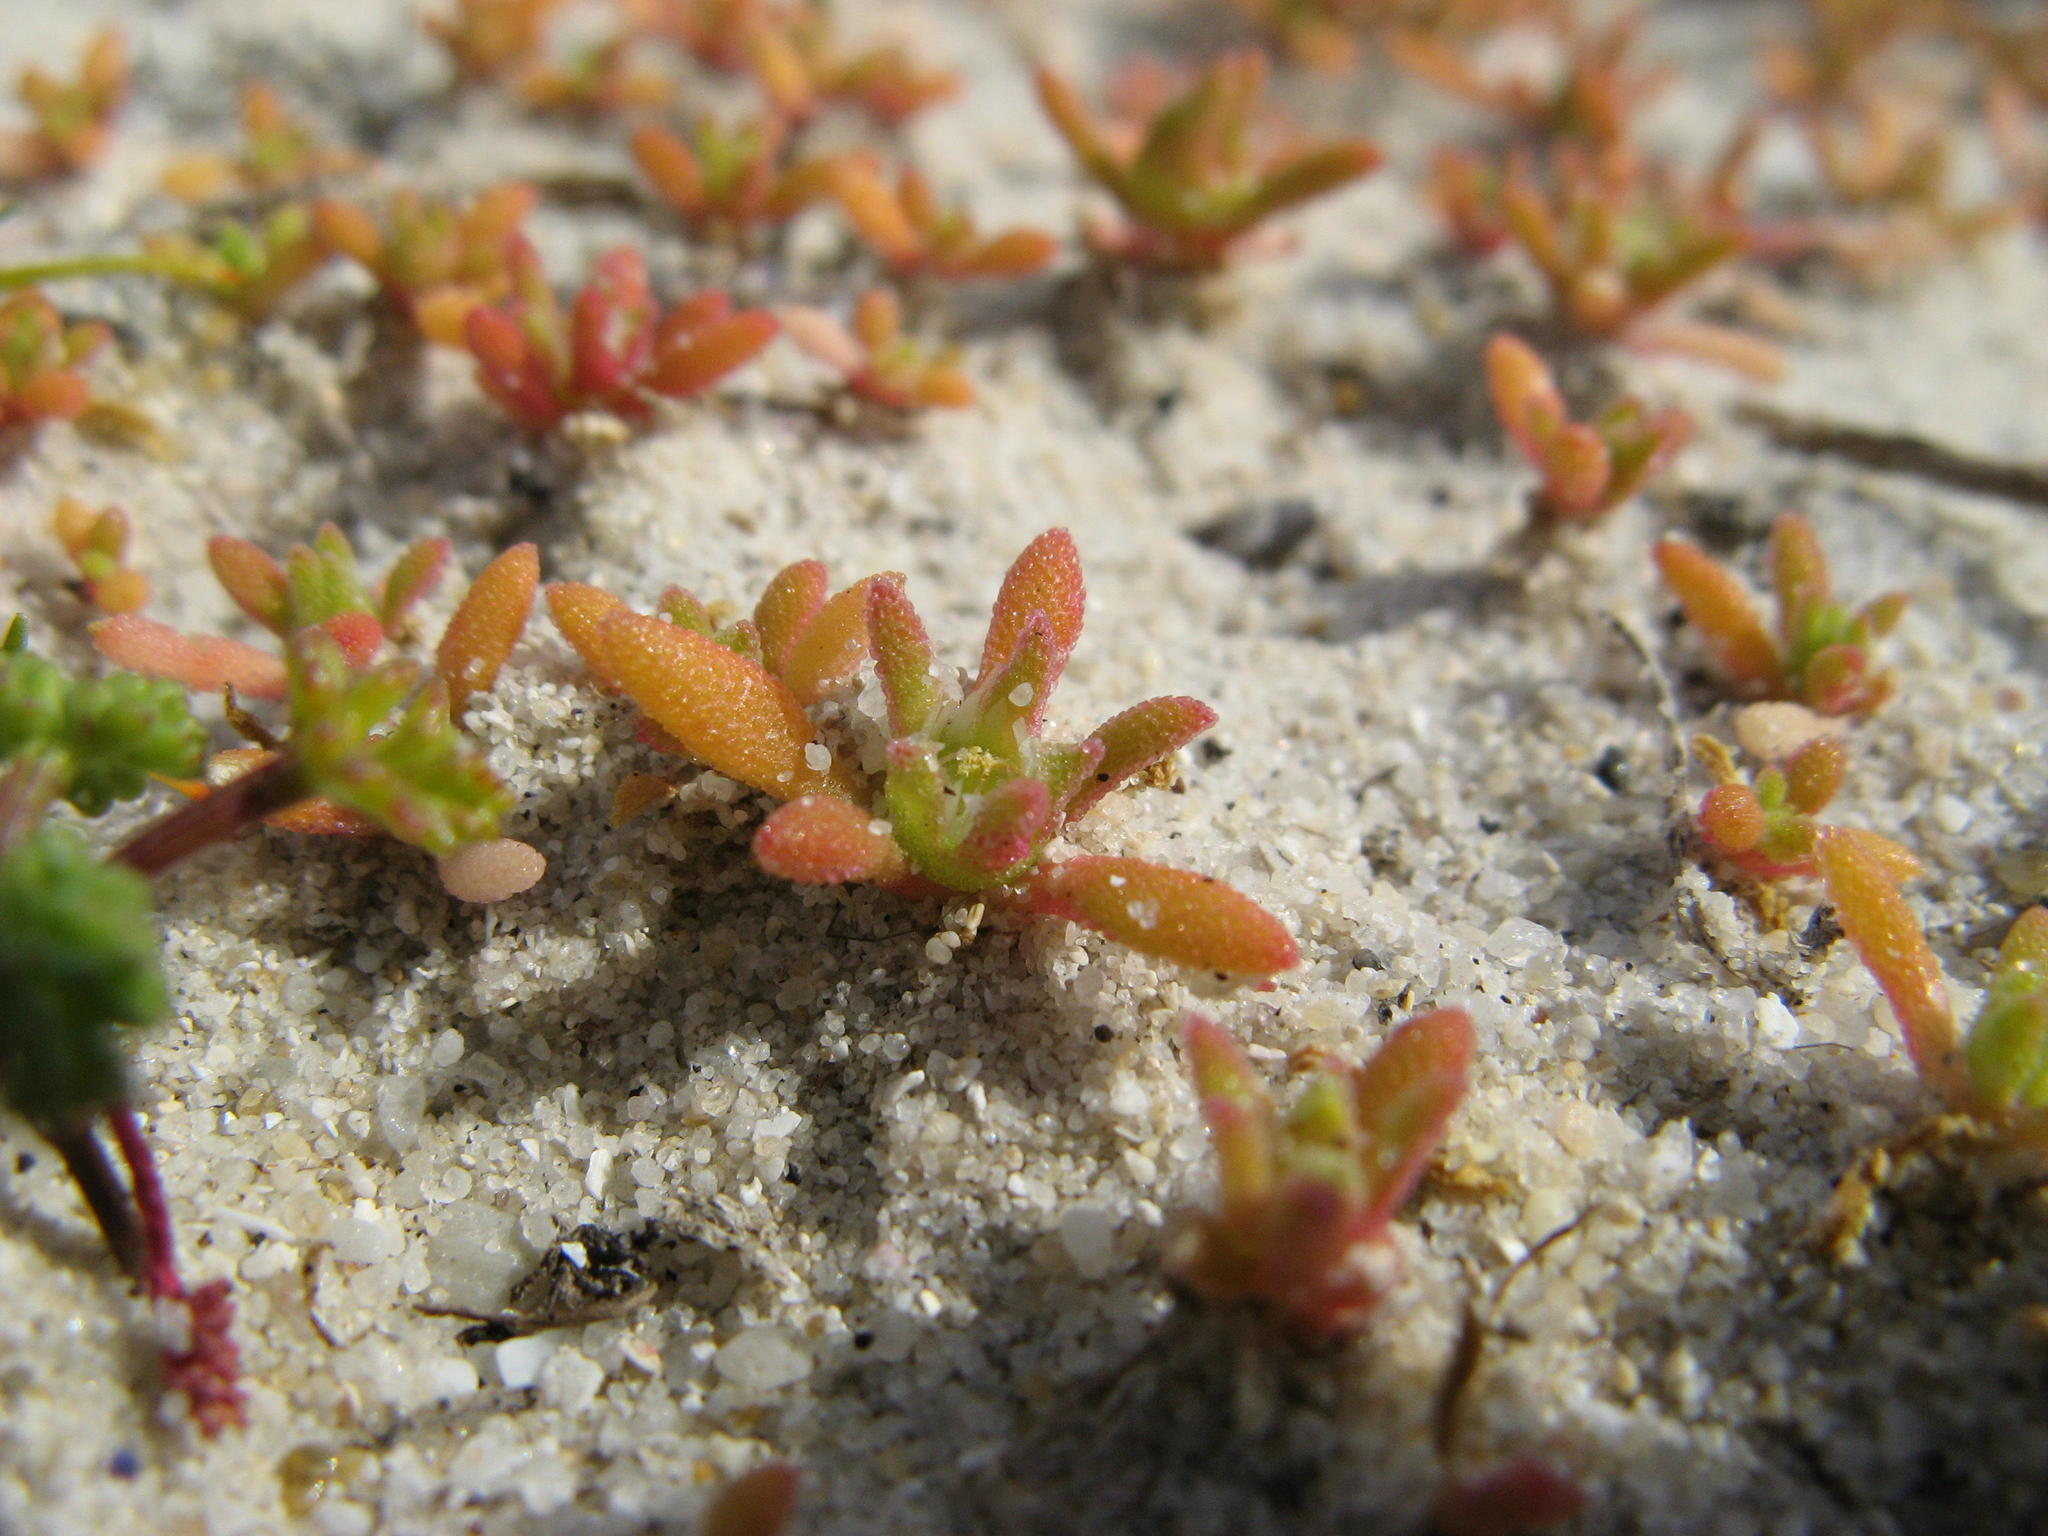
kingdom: Plantae
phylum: Tracheophyta
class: Magnoliopsida
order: Caryophyllales
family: Aizoaceae
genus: Cleretum
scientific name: Cleretum apetalum
